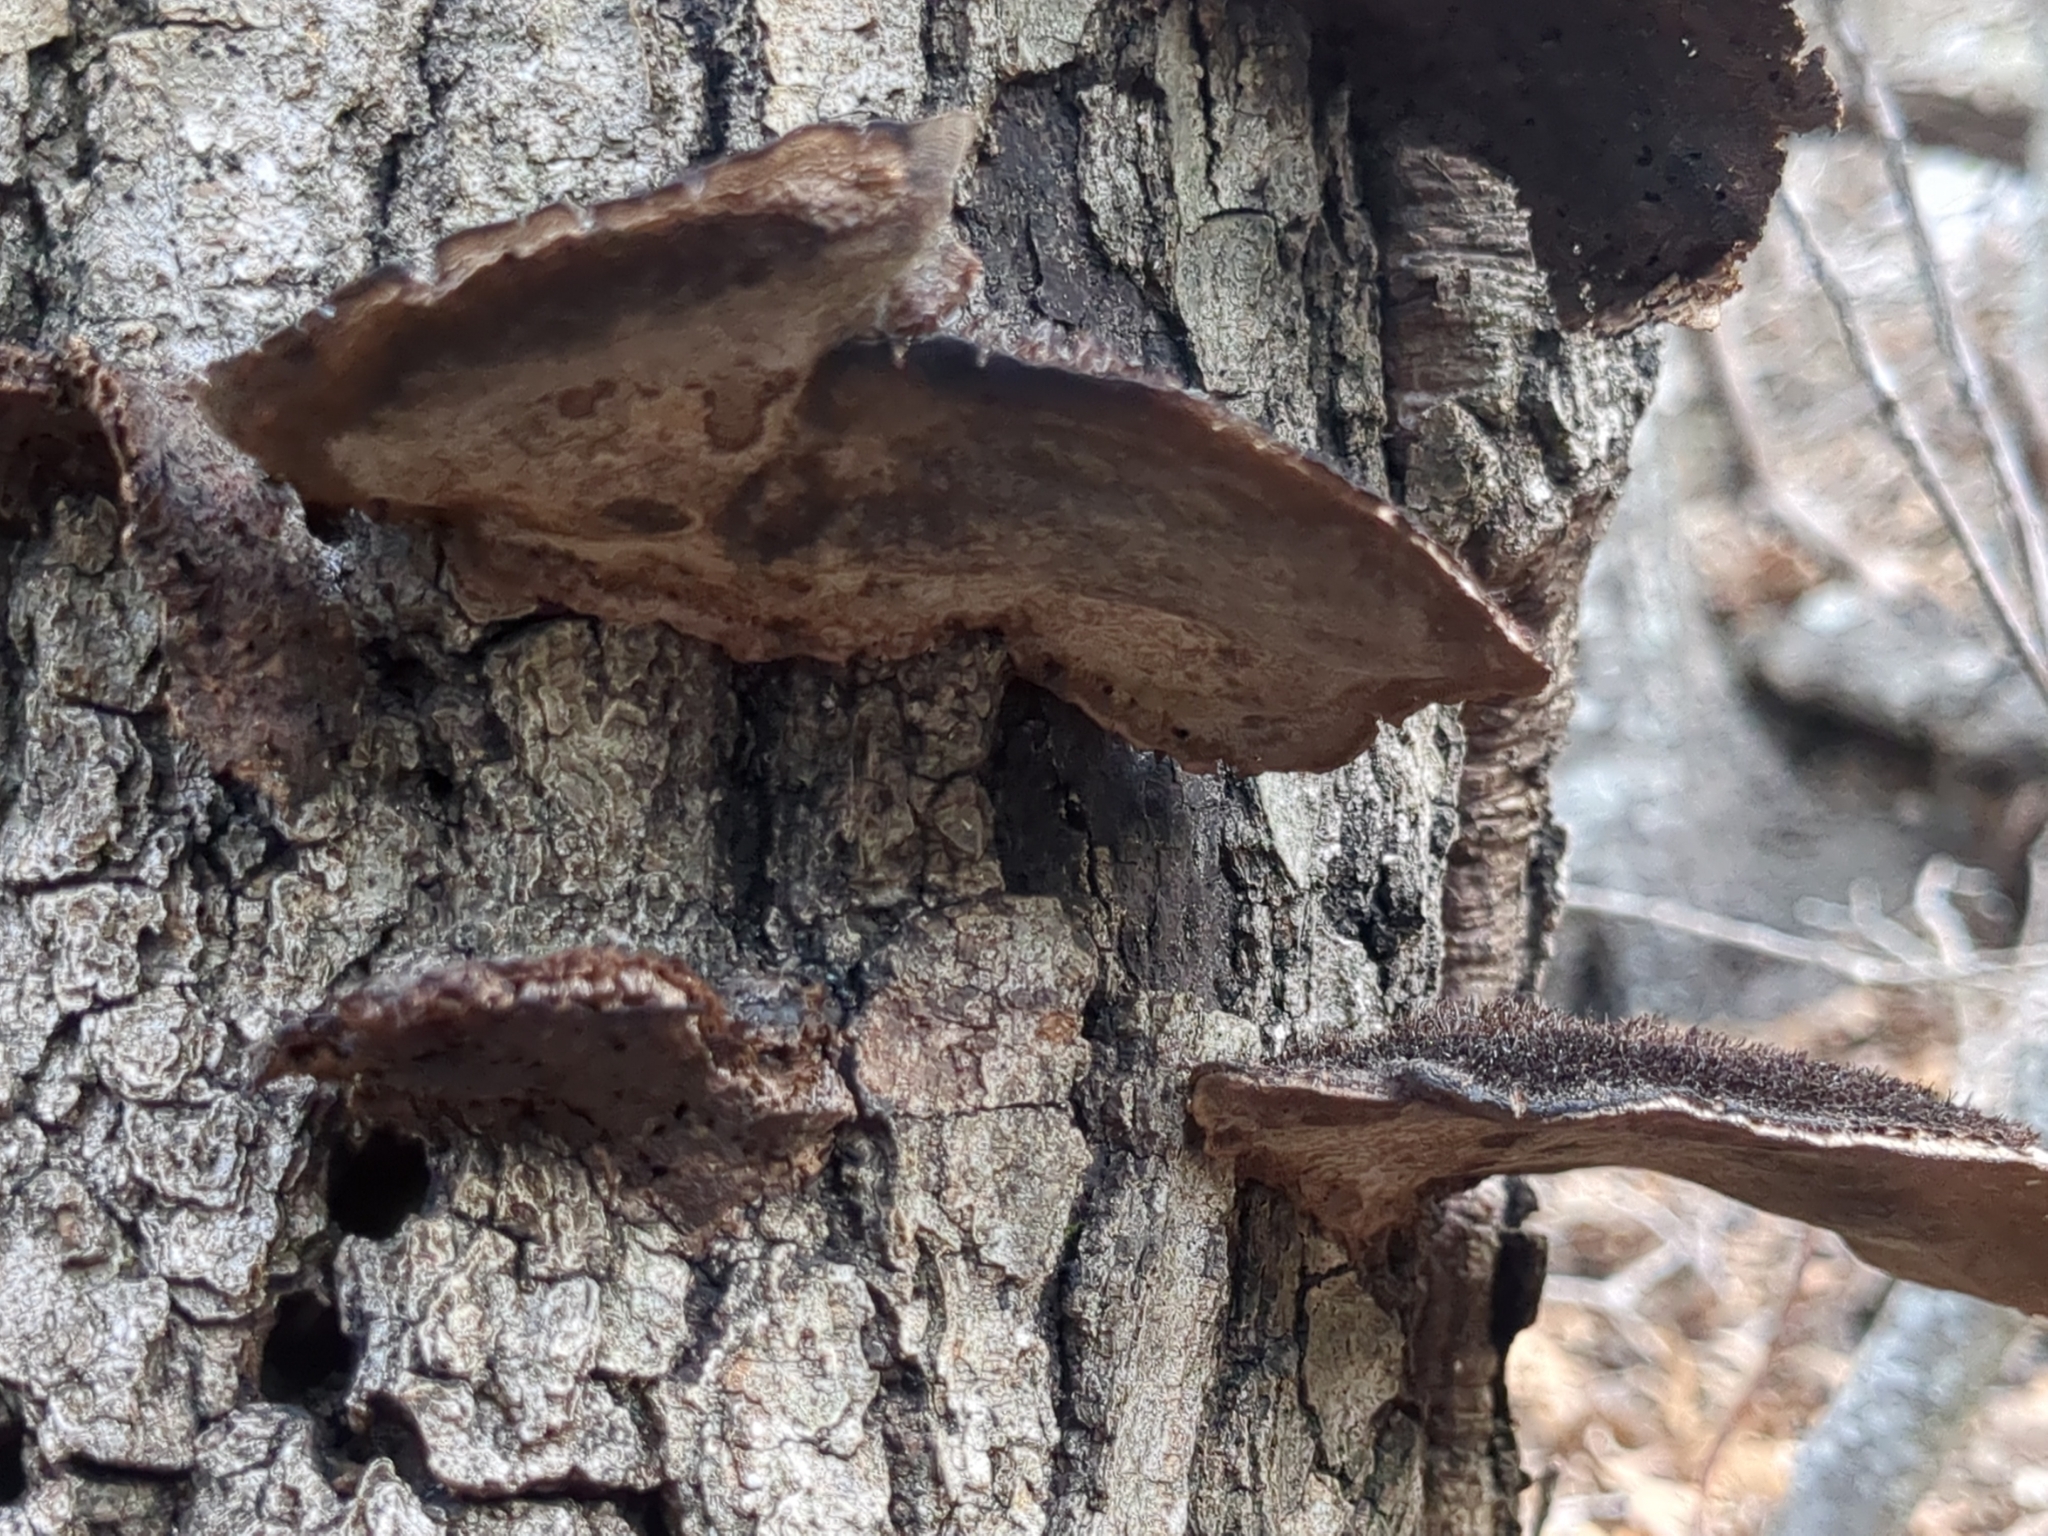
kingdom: Fungi
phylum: Basidiomycota
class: Agaricomycetes
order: Polyporales
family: Cerrenaceae
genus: Cerrena
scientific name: Cerrena hydnoides
